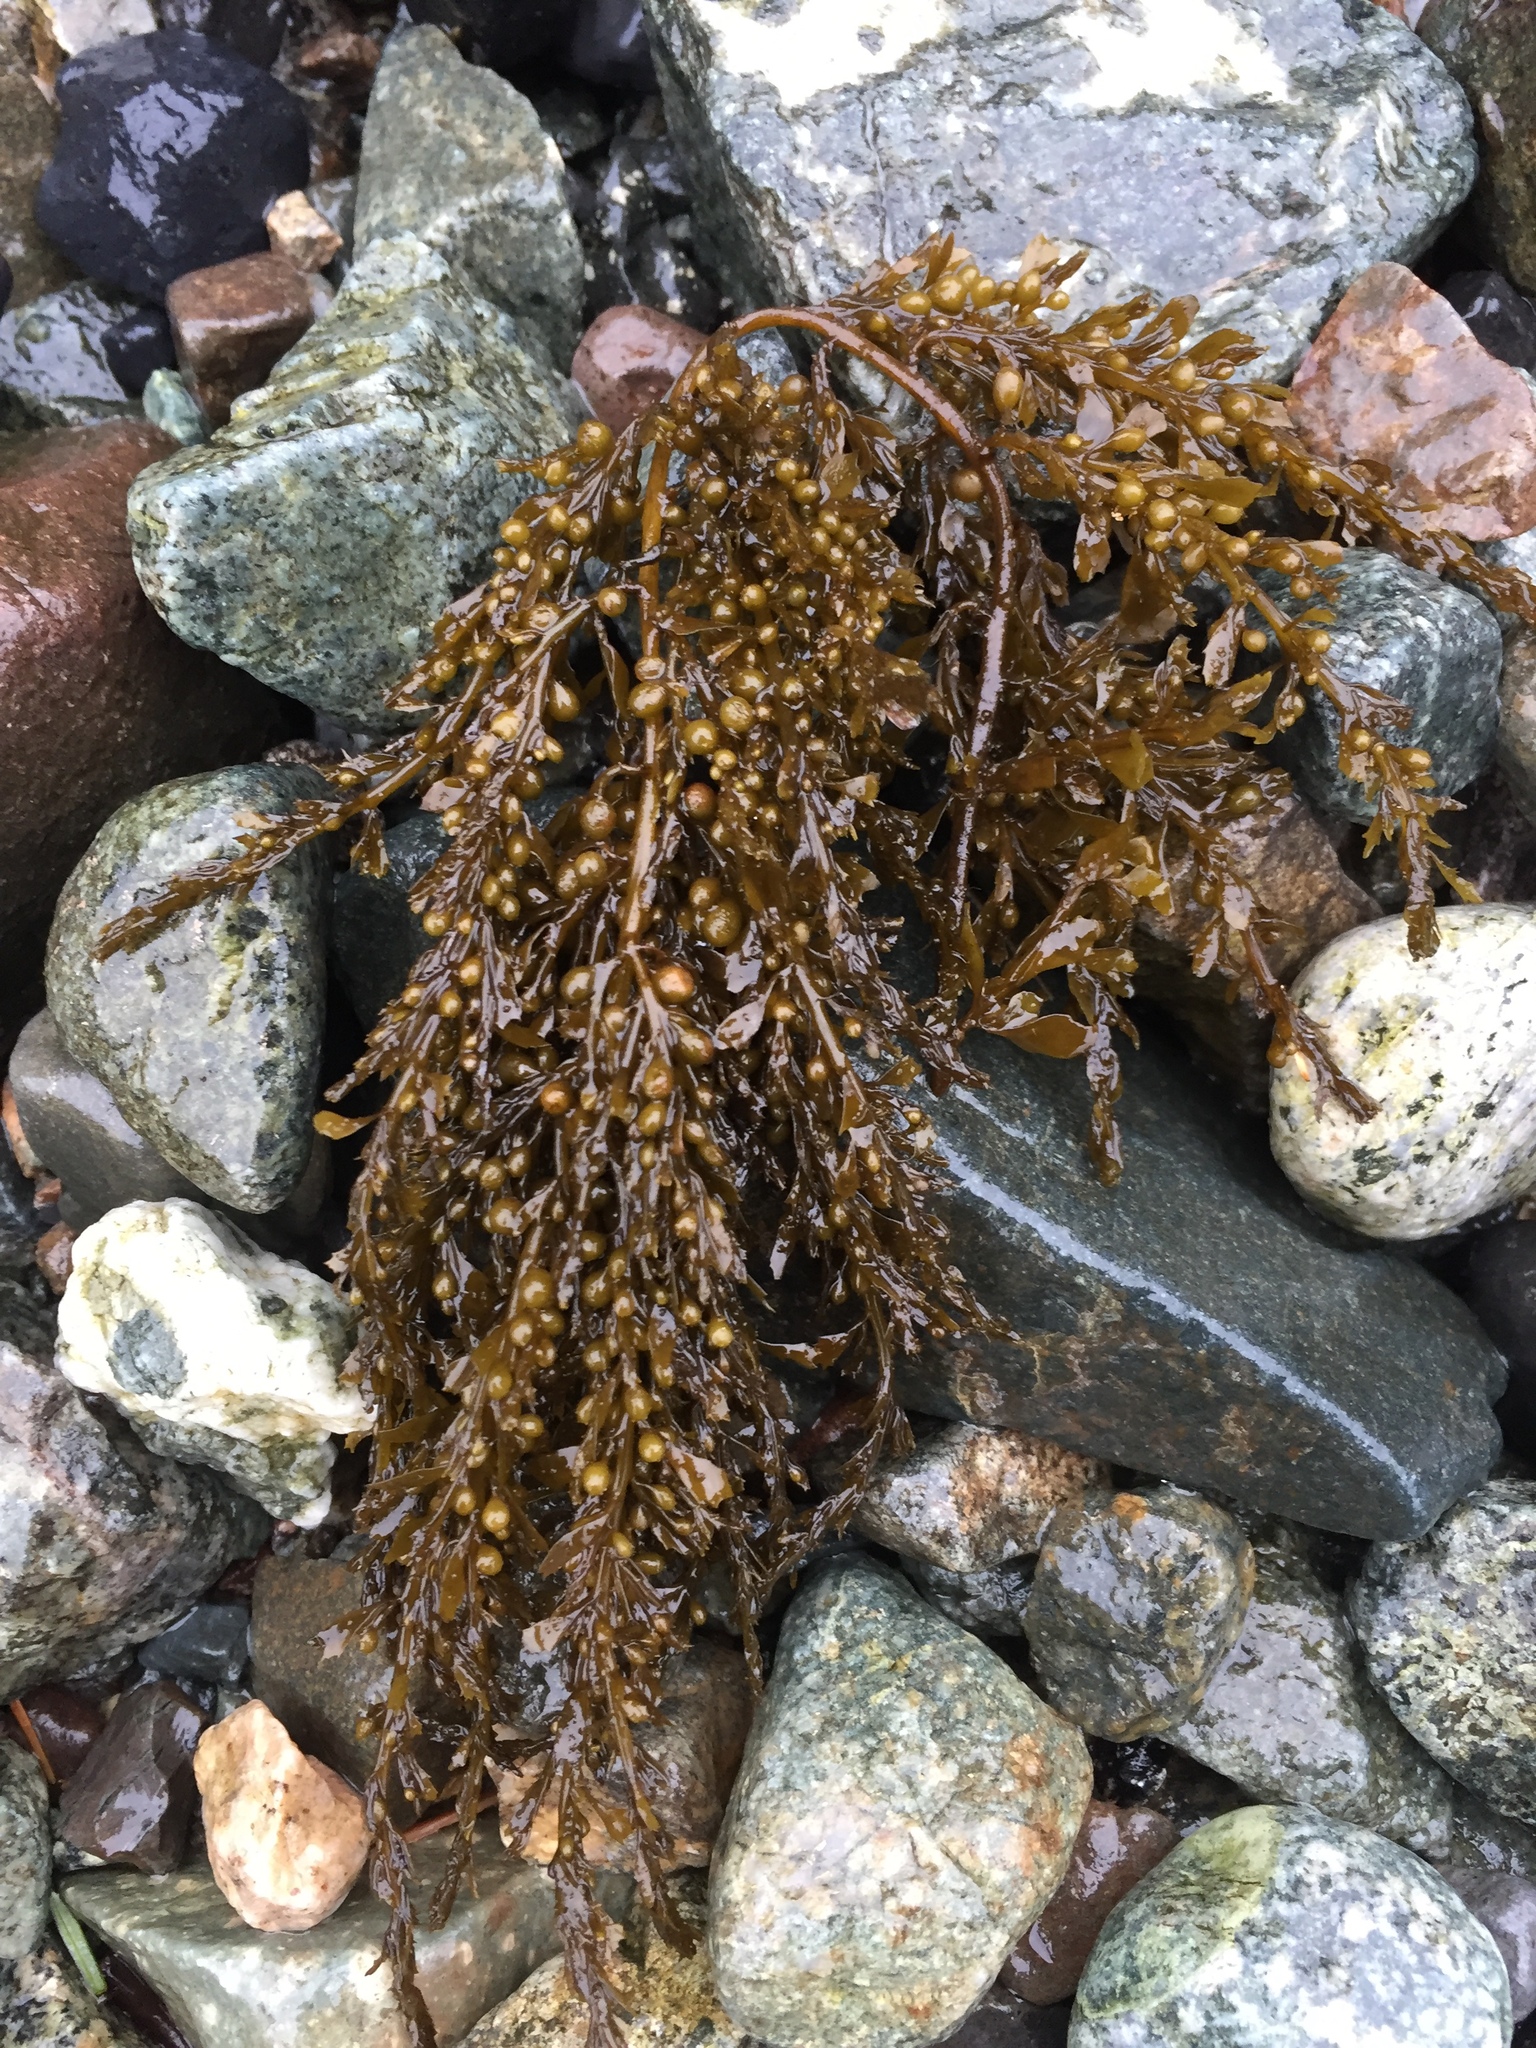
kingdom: Chromista
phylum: Ochrophyta
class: Phaeophyceae
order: Fucales
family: Sargassaceae
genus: Sargassum
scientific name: Sargassum muticum
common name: Japweed
